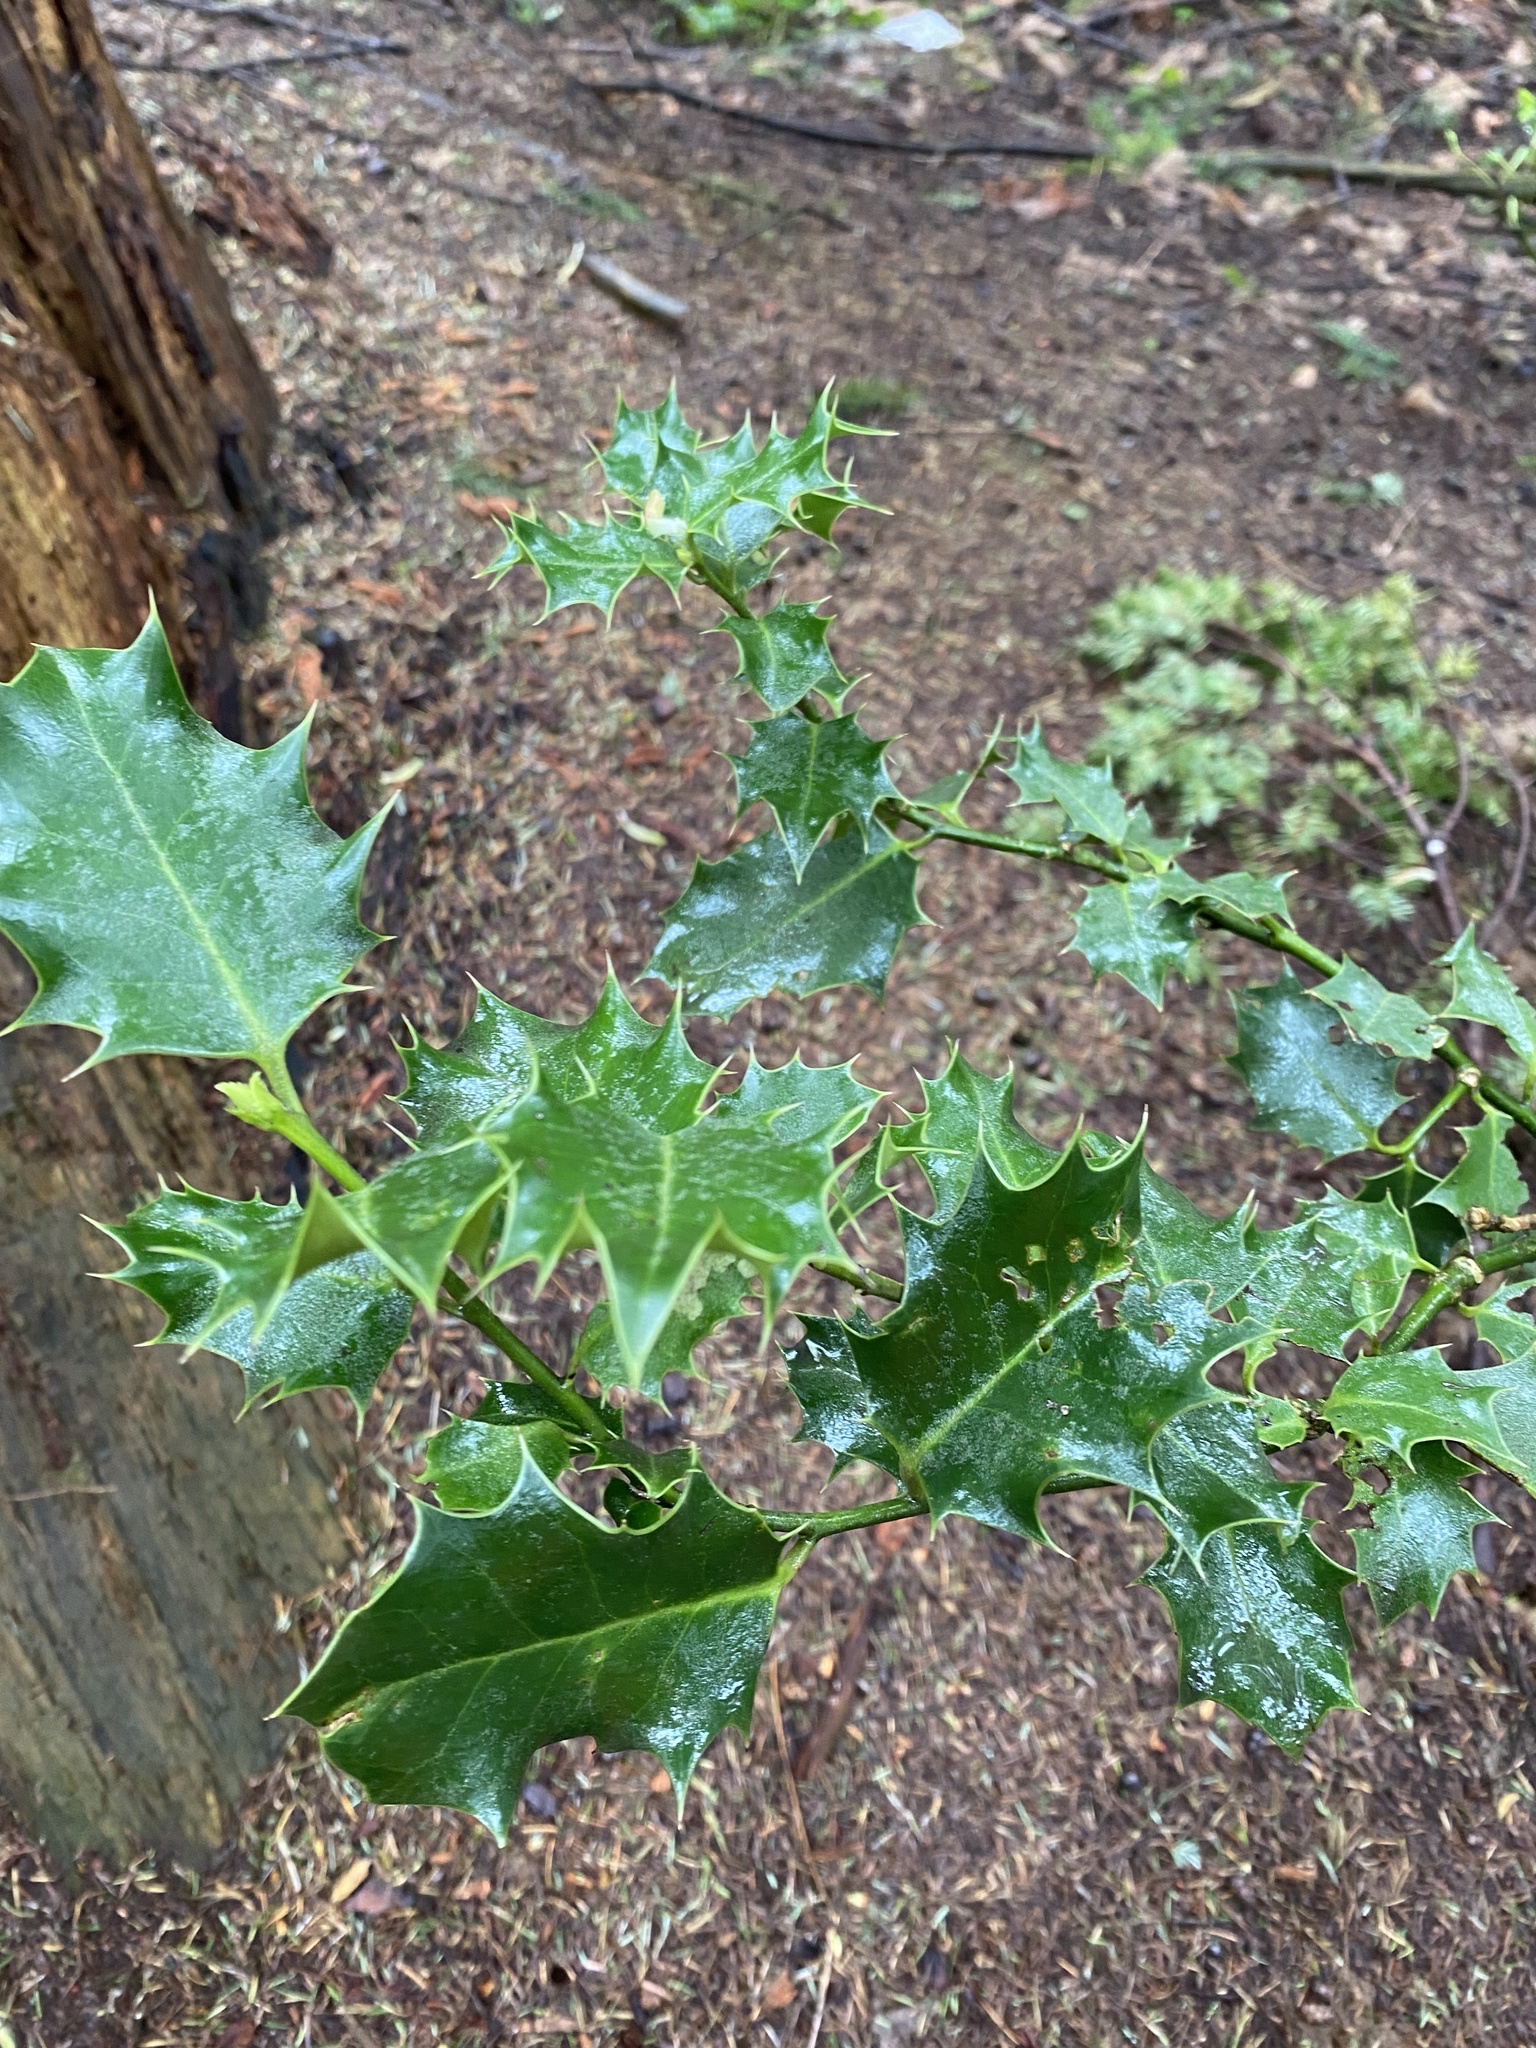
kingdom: Plantae
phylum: Tracheophyta
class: Magnoliopsida
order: Aquifoliales
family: Aquifoliaceae
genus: Ilex
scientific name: Ilex aquifolium
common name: English holly
